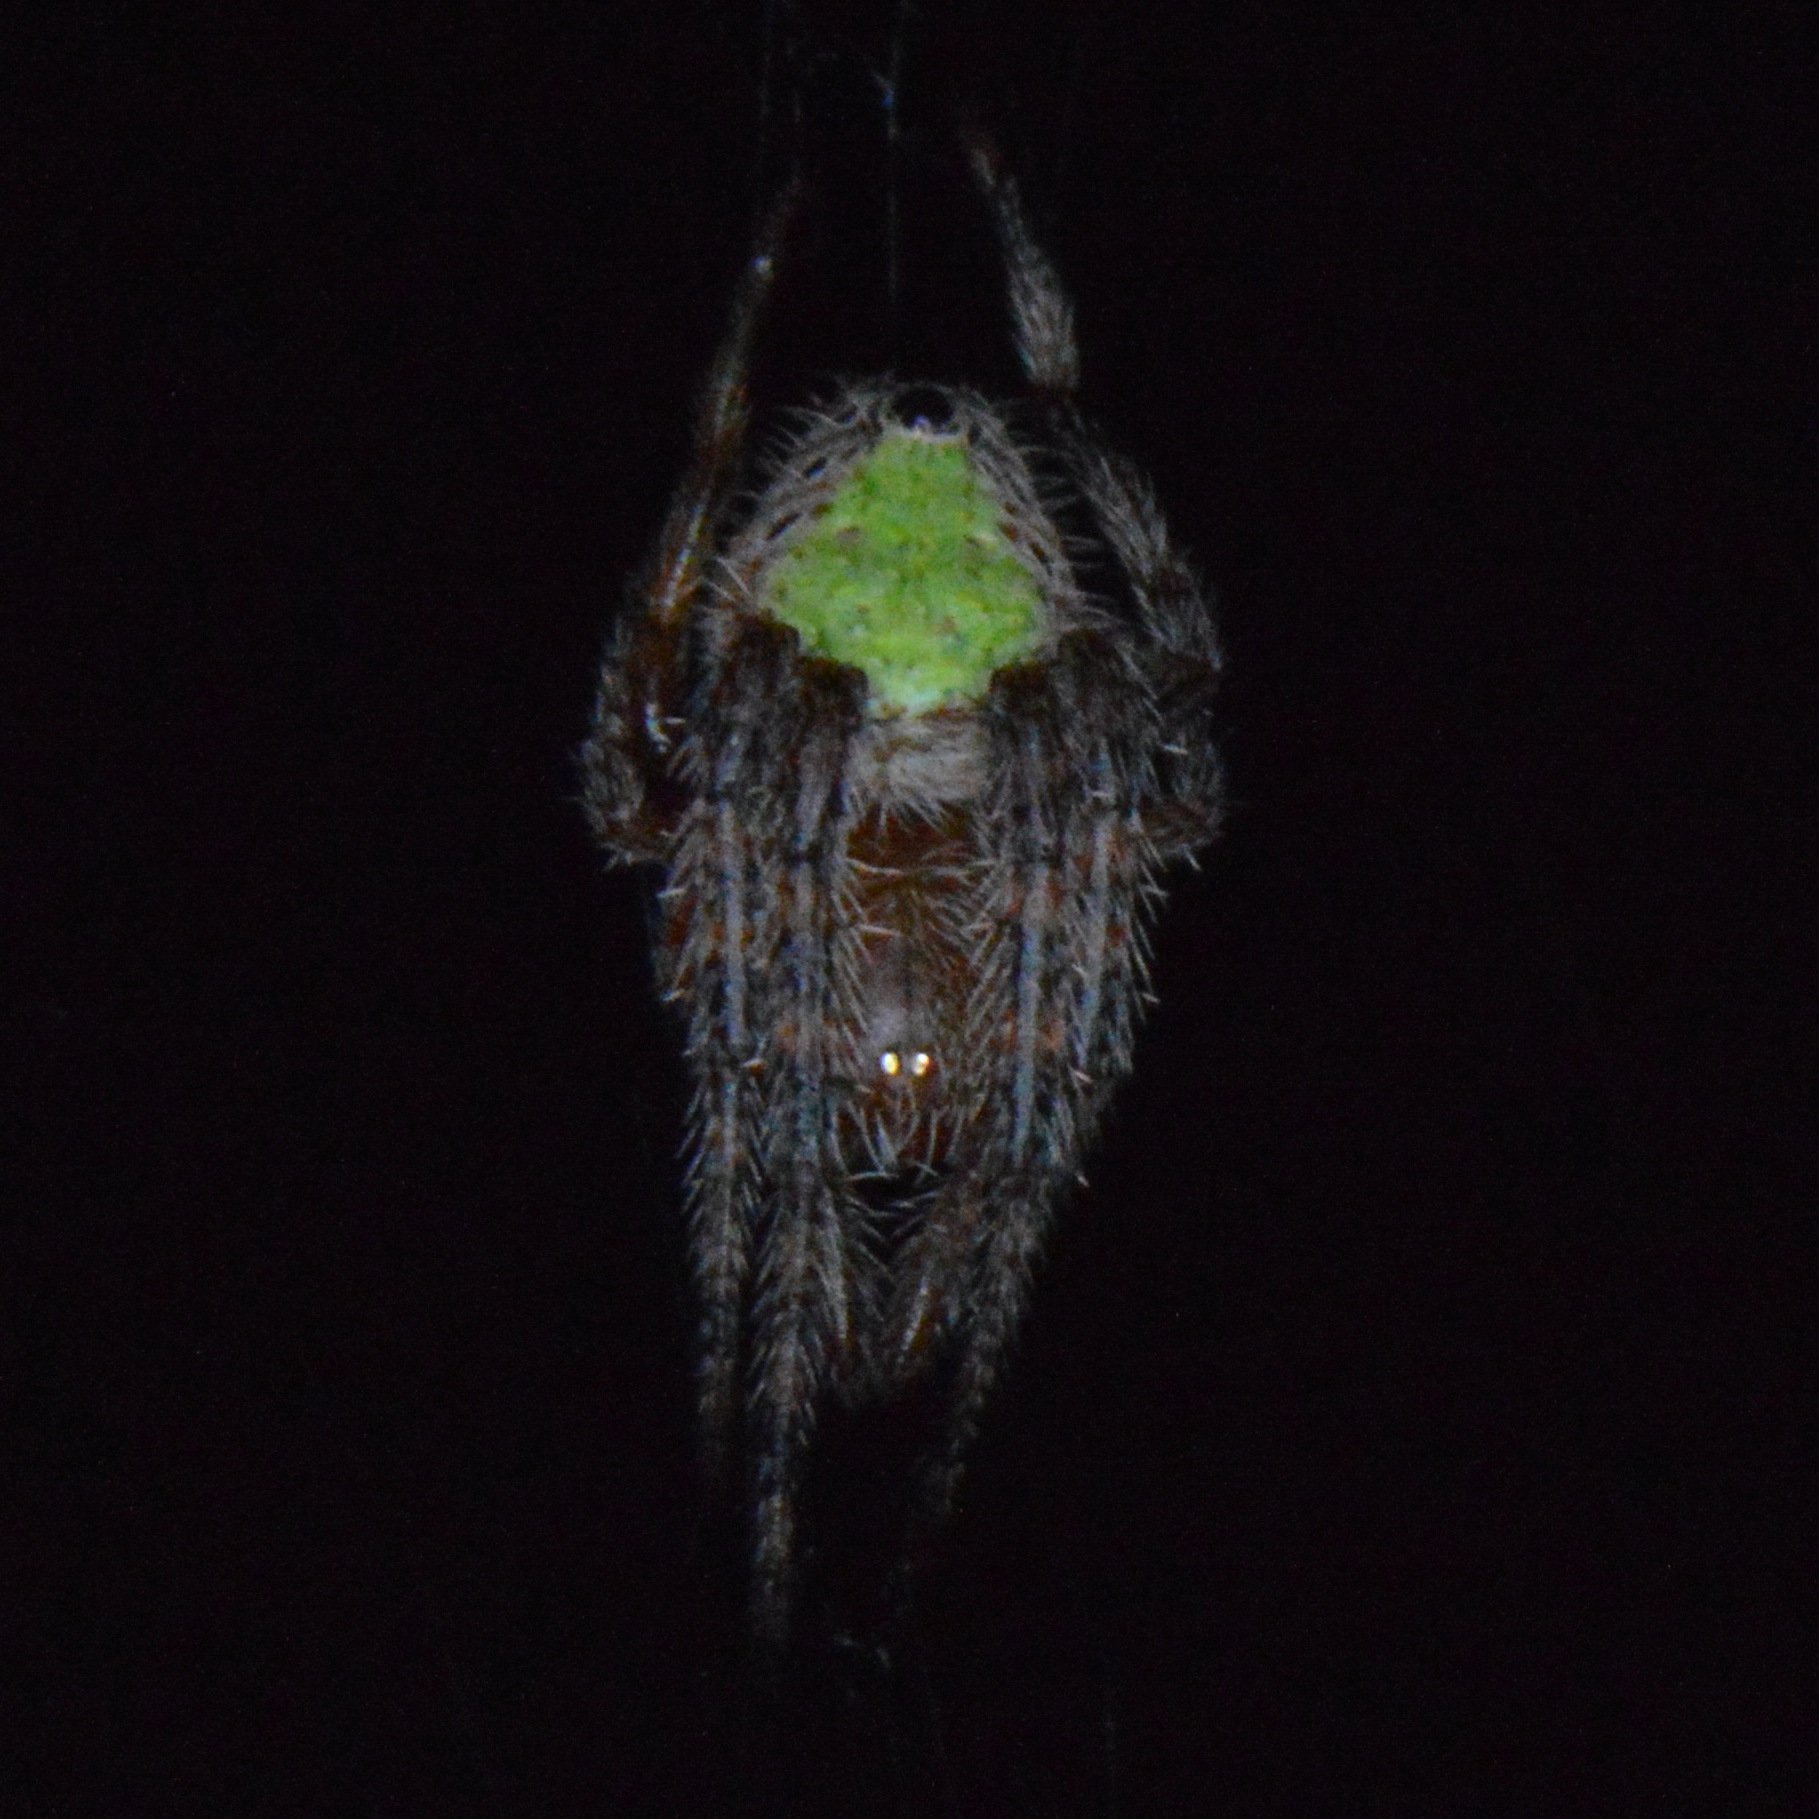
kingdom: Animalia
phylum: Arthropoda
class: Arachnida
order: Araneae
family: Araneidae
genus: Eriophora
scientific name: Eriophora ravilla
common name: Orb weavers
